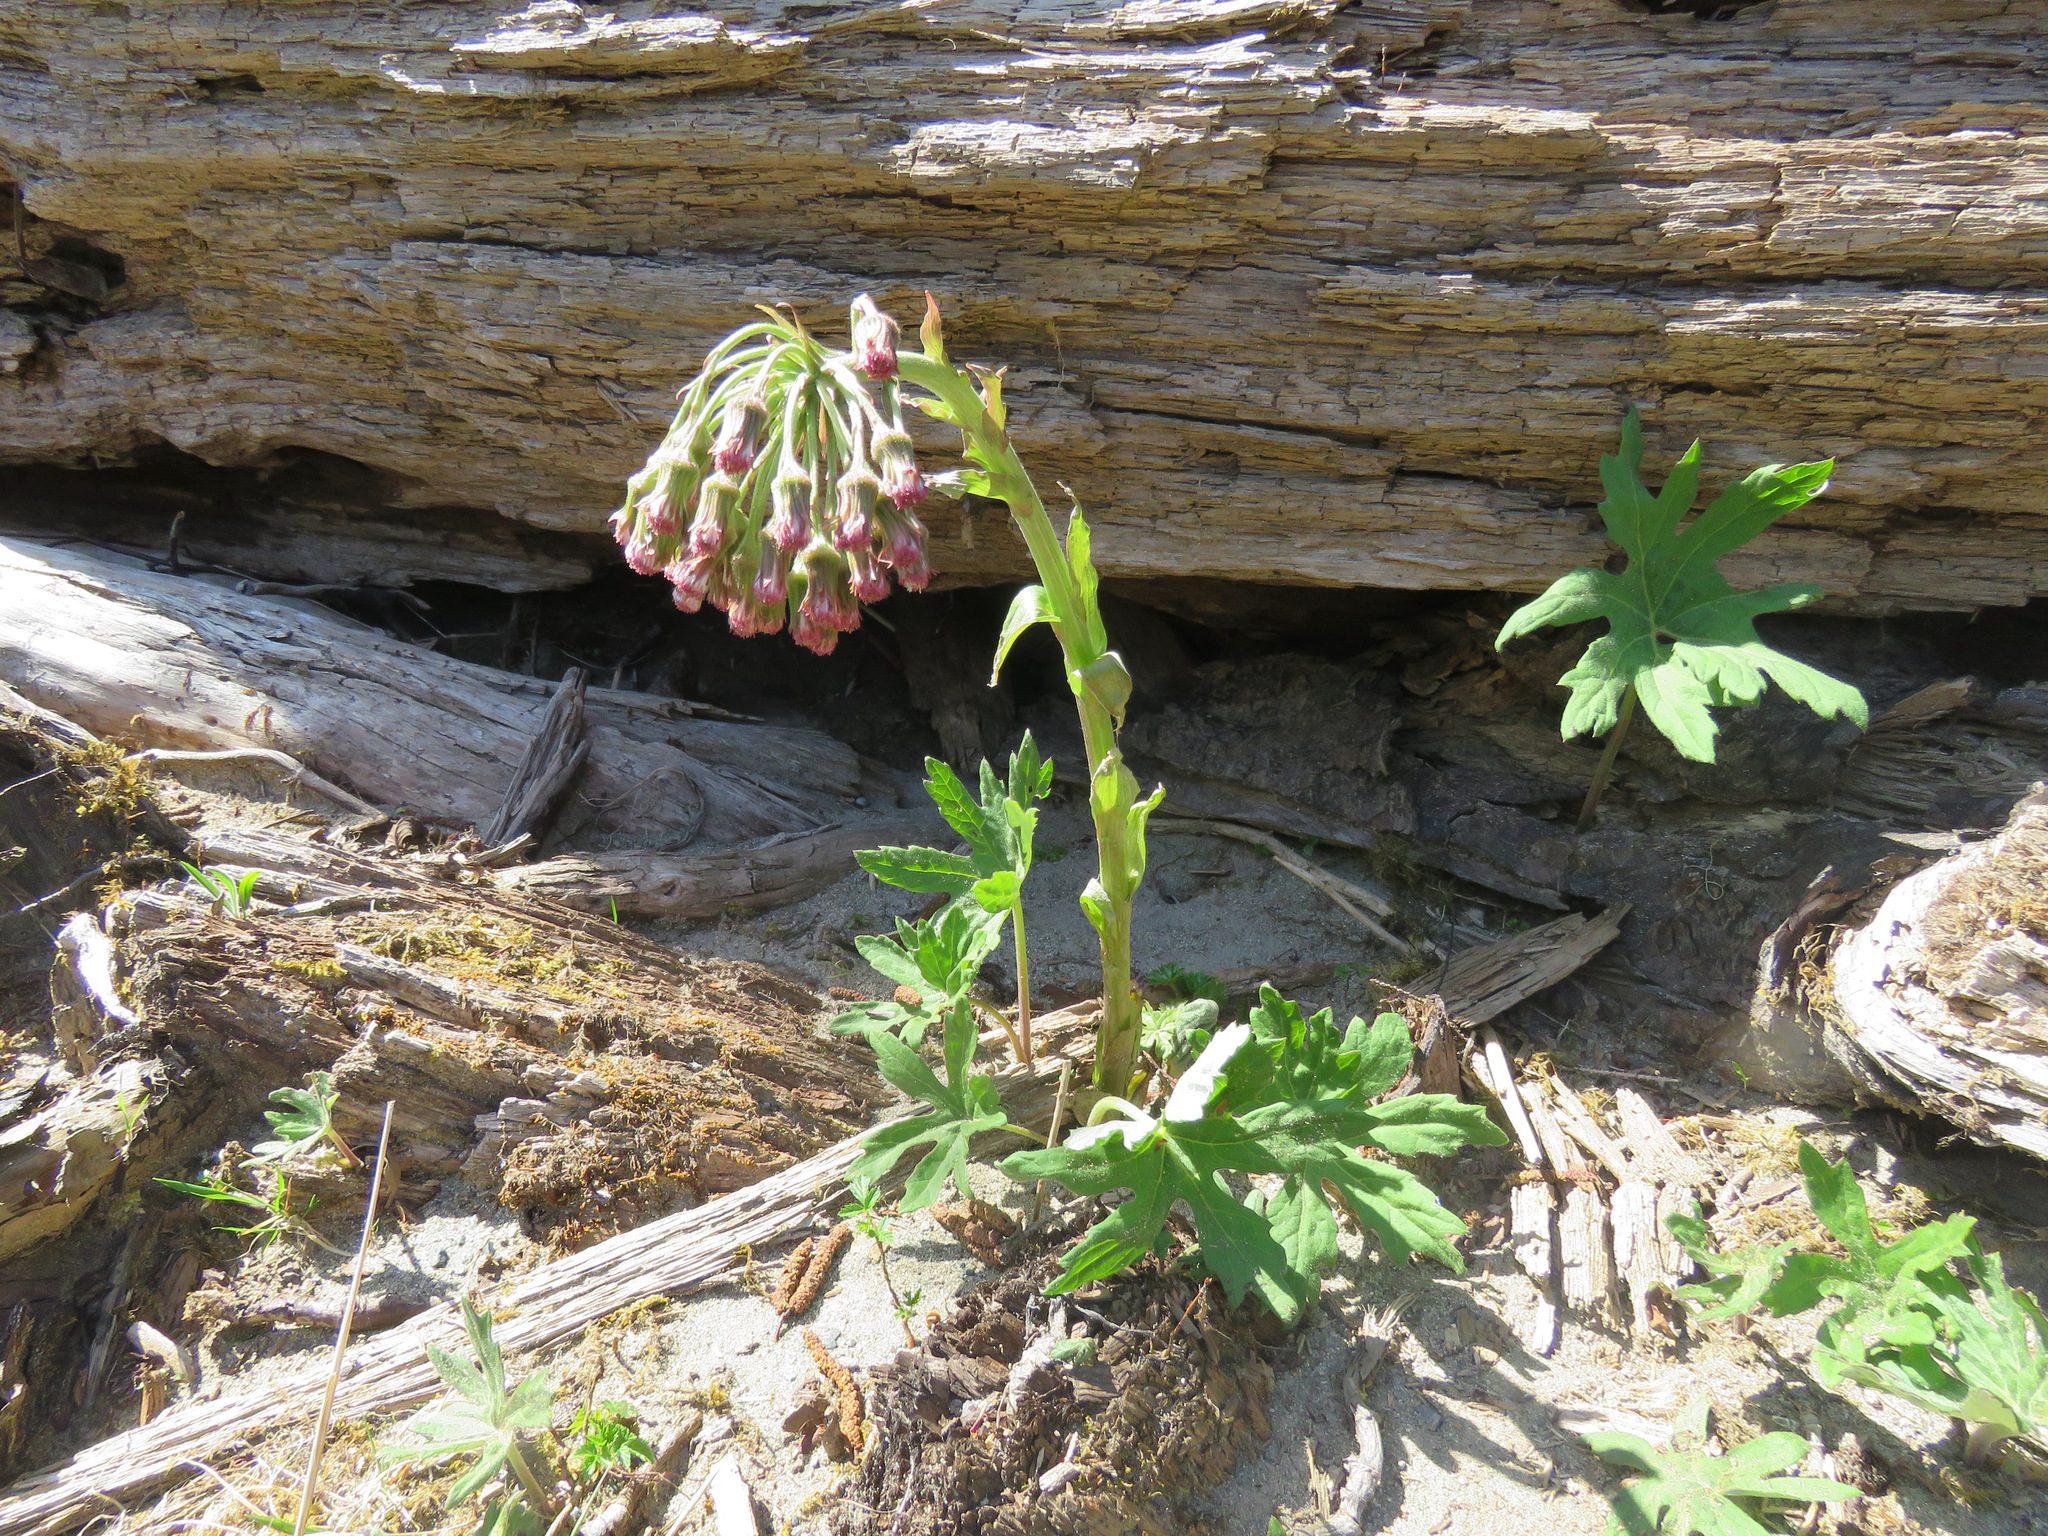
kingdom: Plantae
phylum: Tracheophyta
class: Magnoliopsida
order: Asterales
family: Asteraceae
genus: Petasites
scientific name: Petasites frigidus
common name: Arctic butterbur
